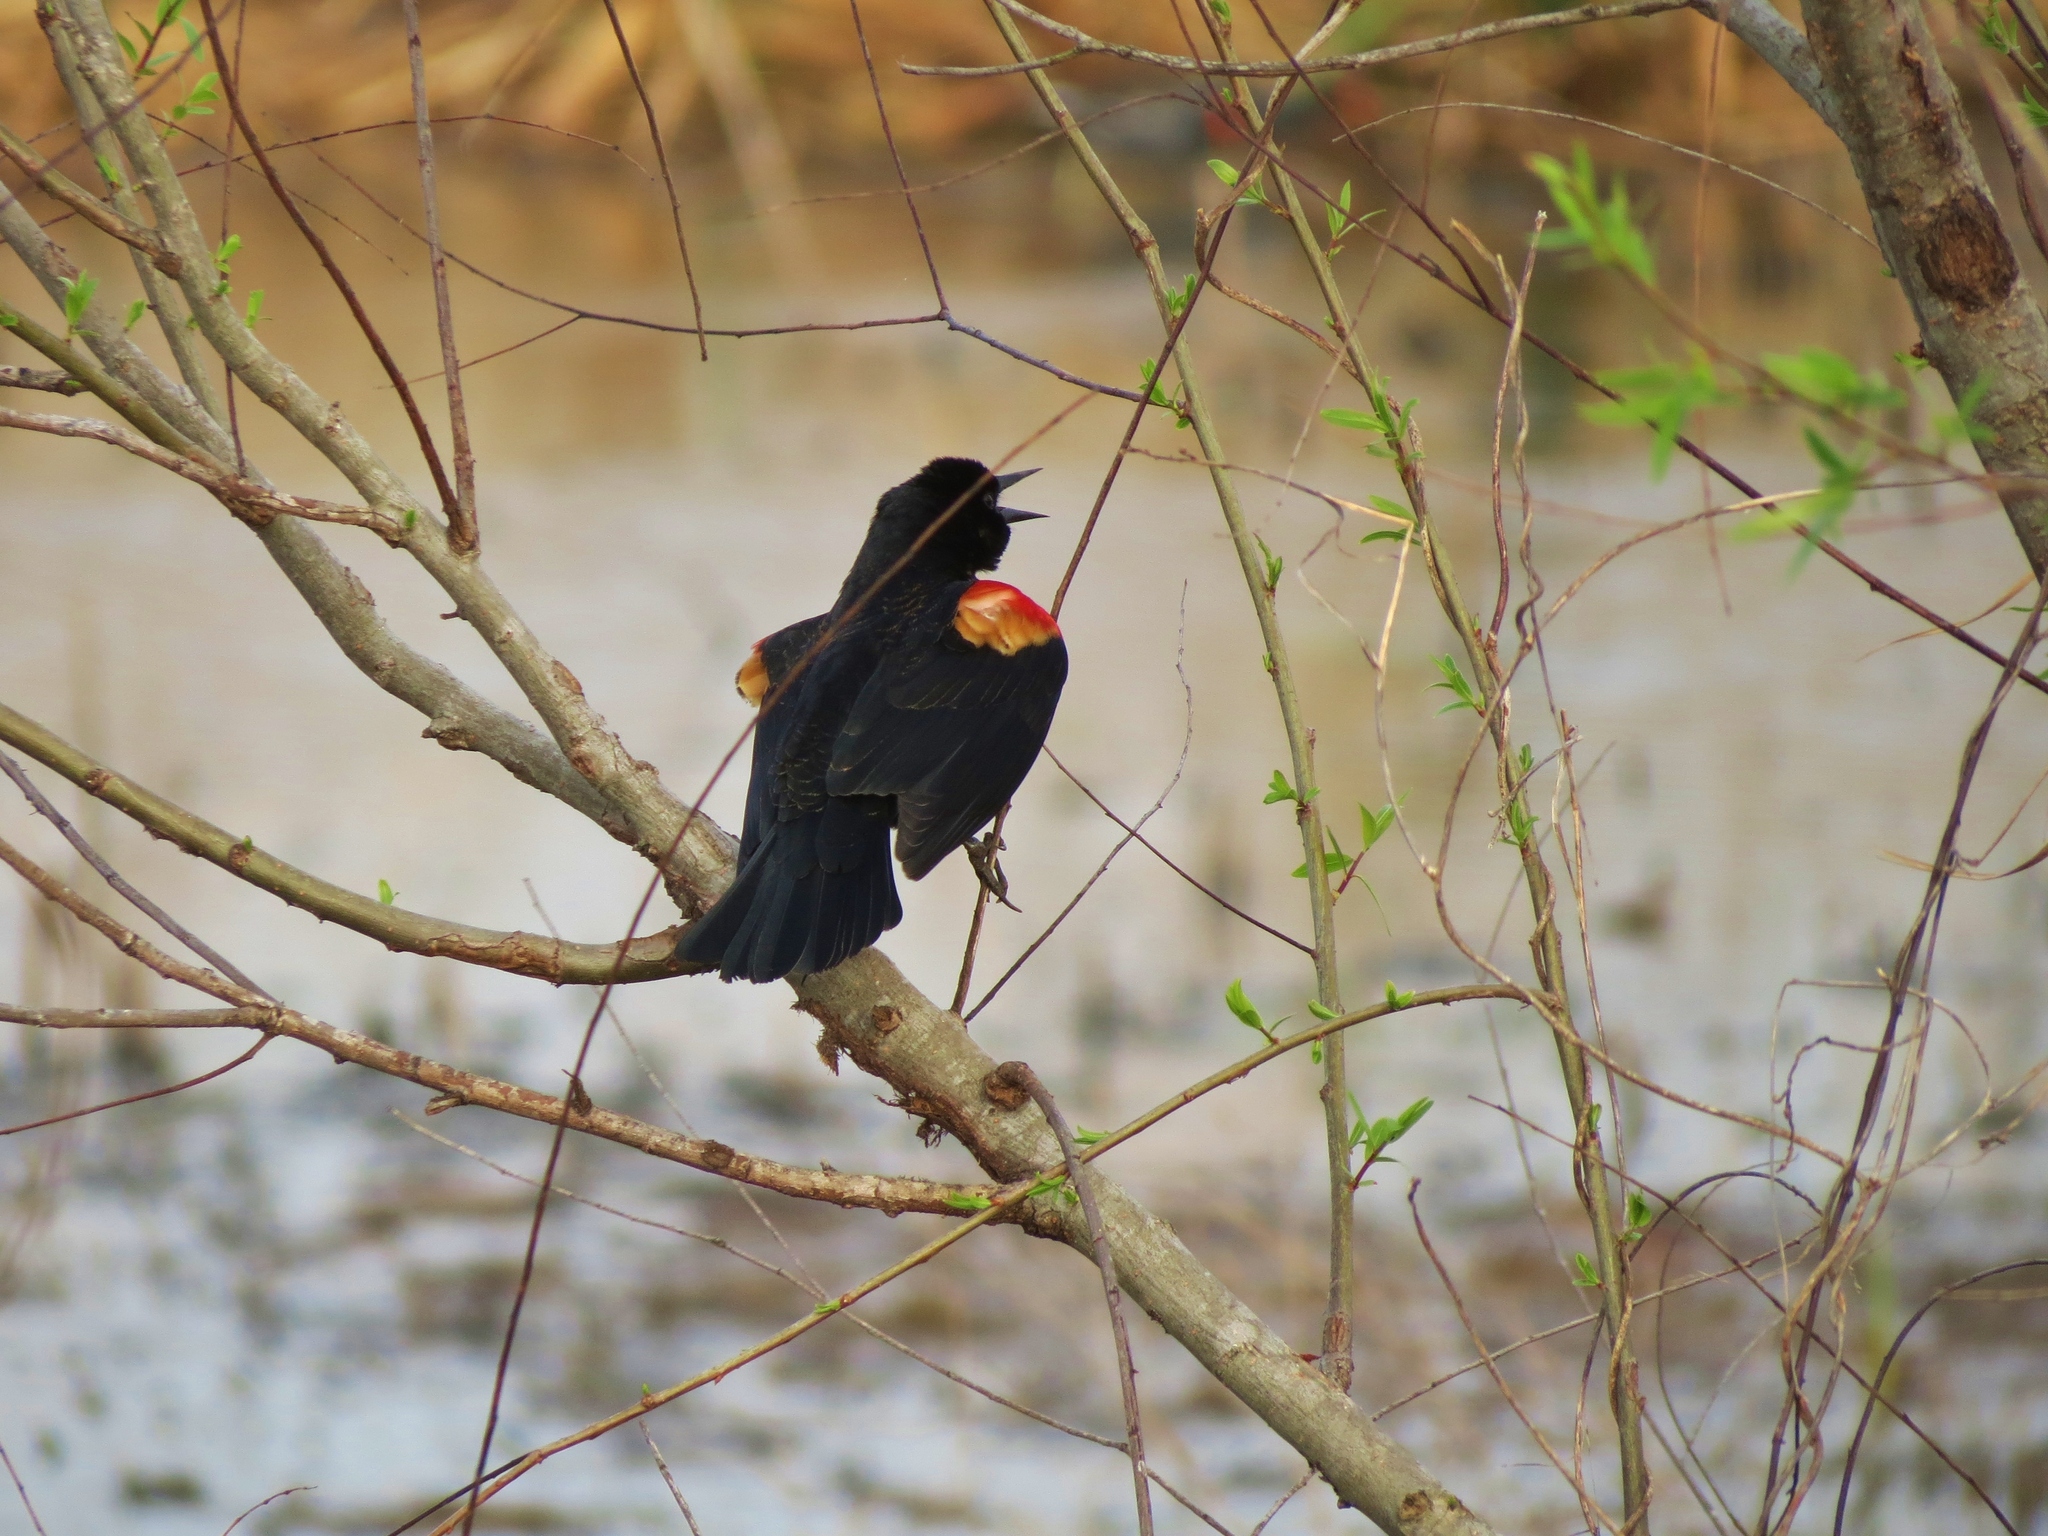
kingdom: Animalia
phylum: Chordata
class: Aves
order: Passeriformes
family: Icteridae
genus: Agelaius
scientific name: Agelaius phoeniceus
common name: Red-winged blackbird
